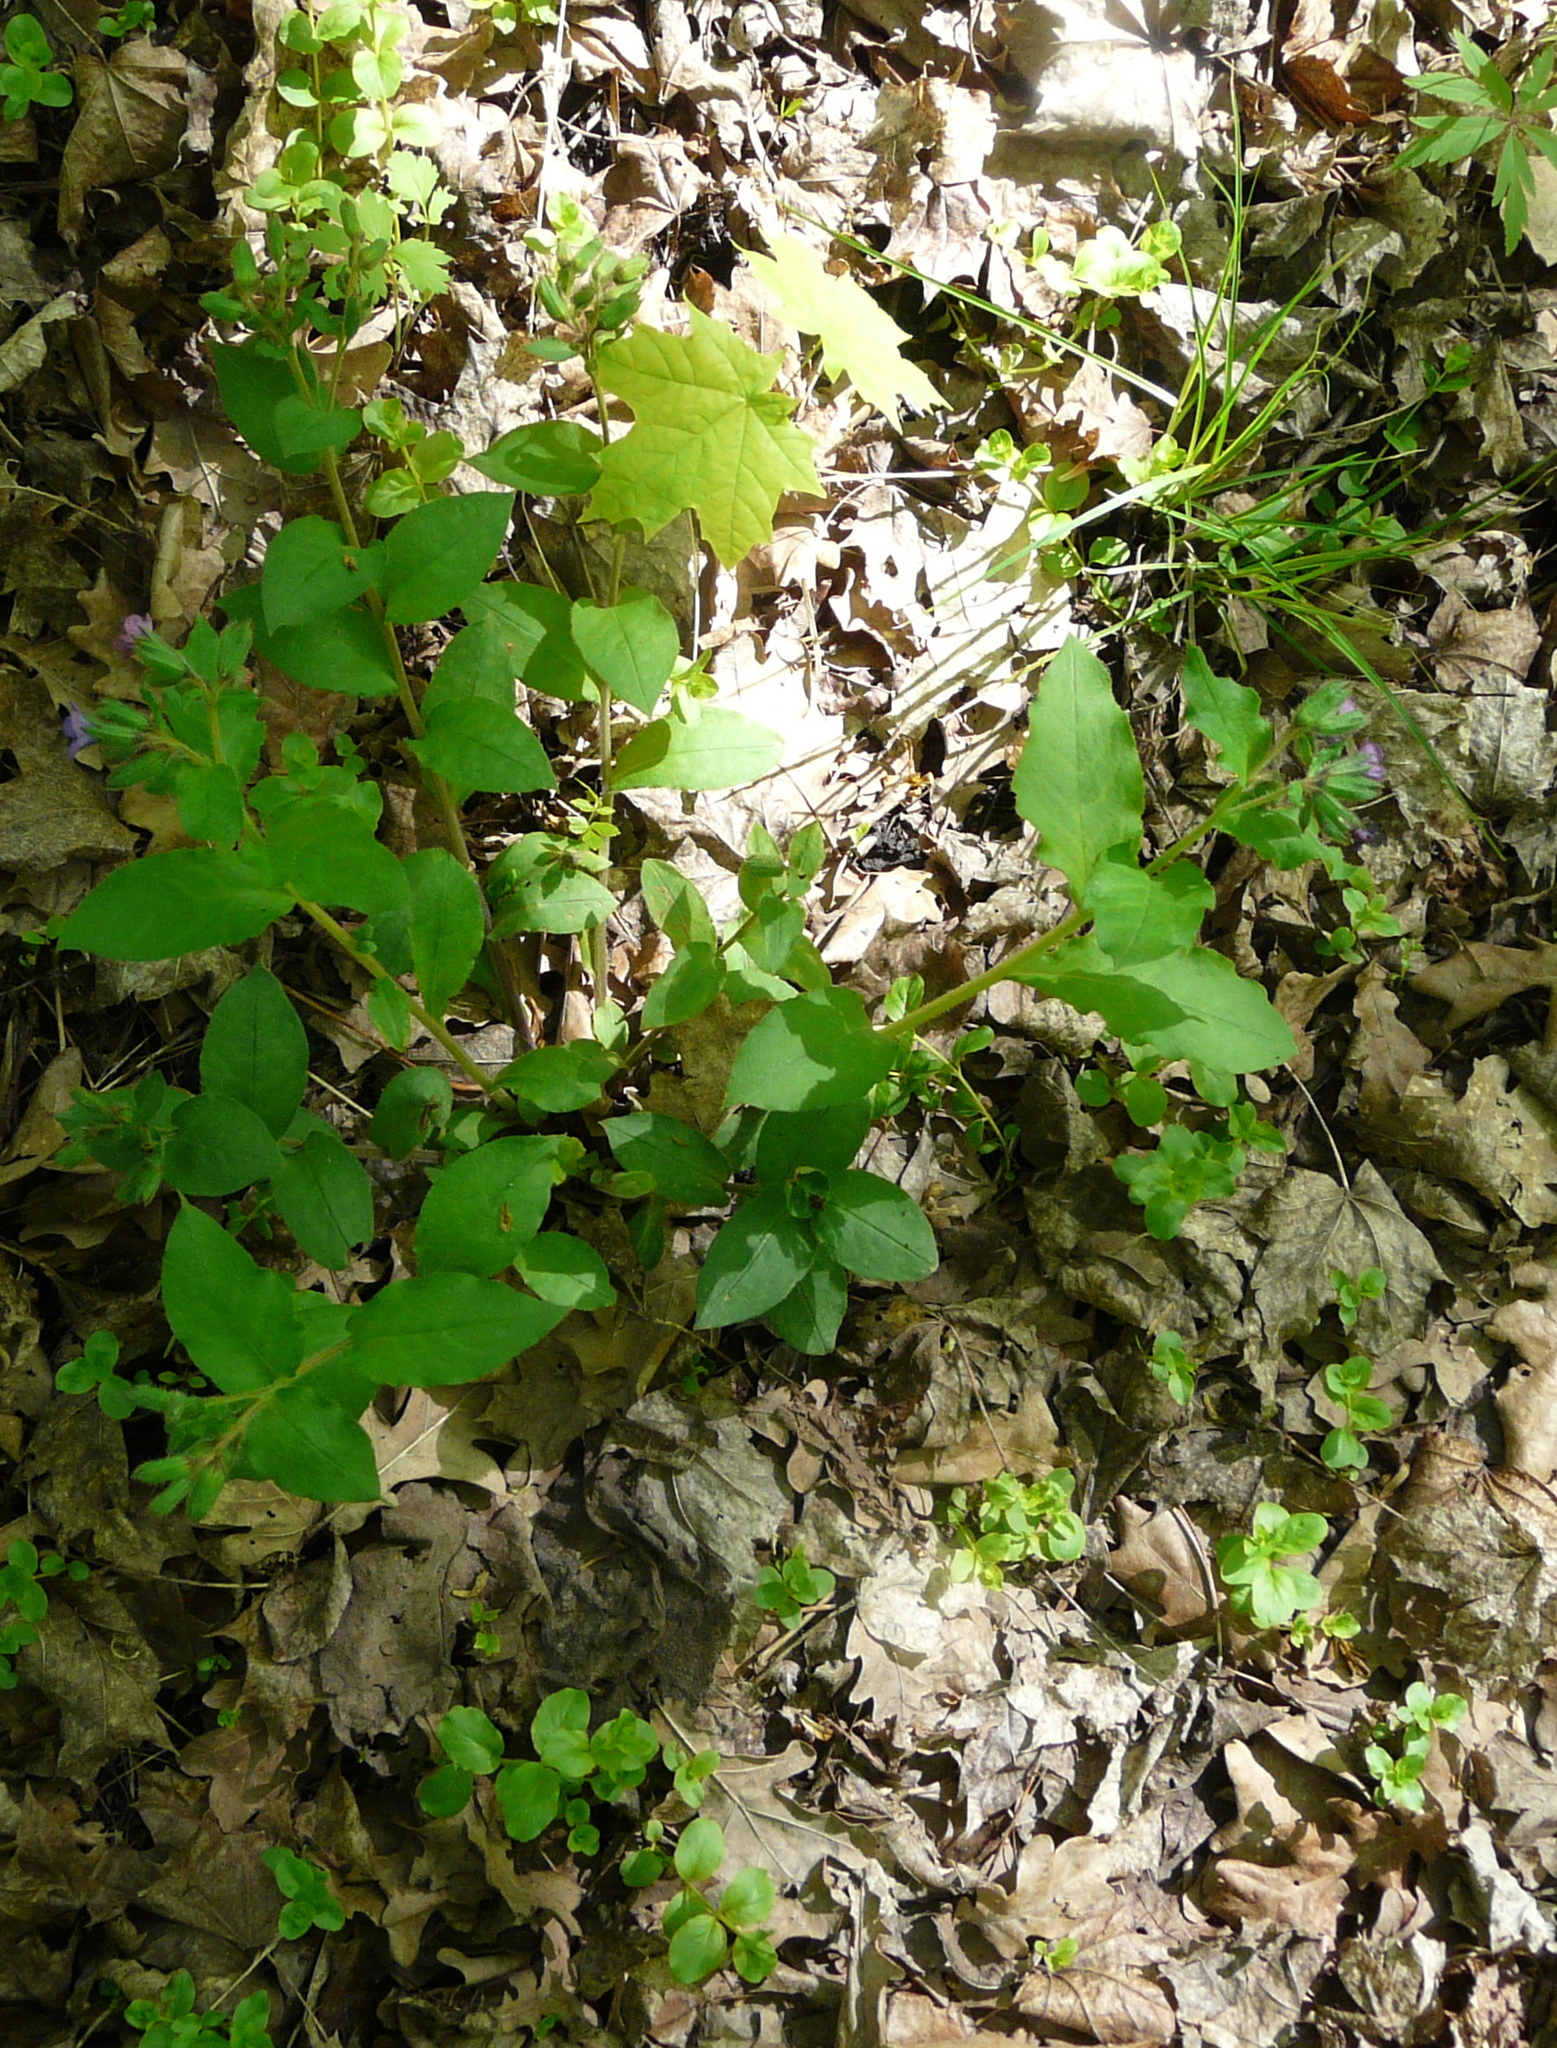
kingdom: Plantae
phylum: Tracheophyta
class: Magnoliopsida
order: Boraginales
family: Boraginaceae
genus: Pulmonaria
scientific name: Pulmonaria obscura
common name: Suffolk lungwort
